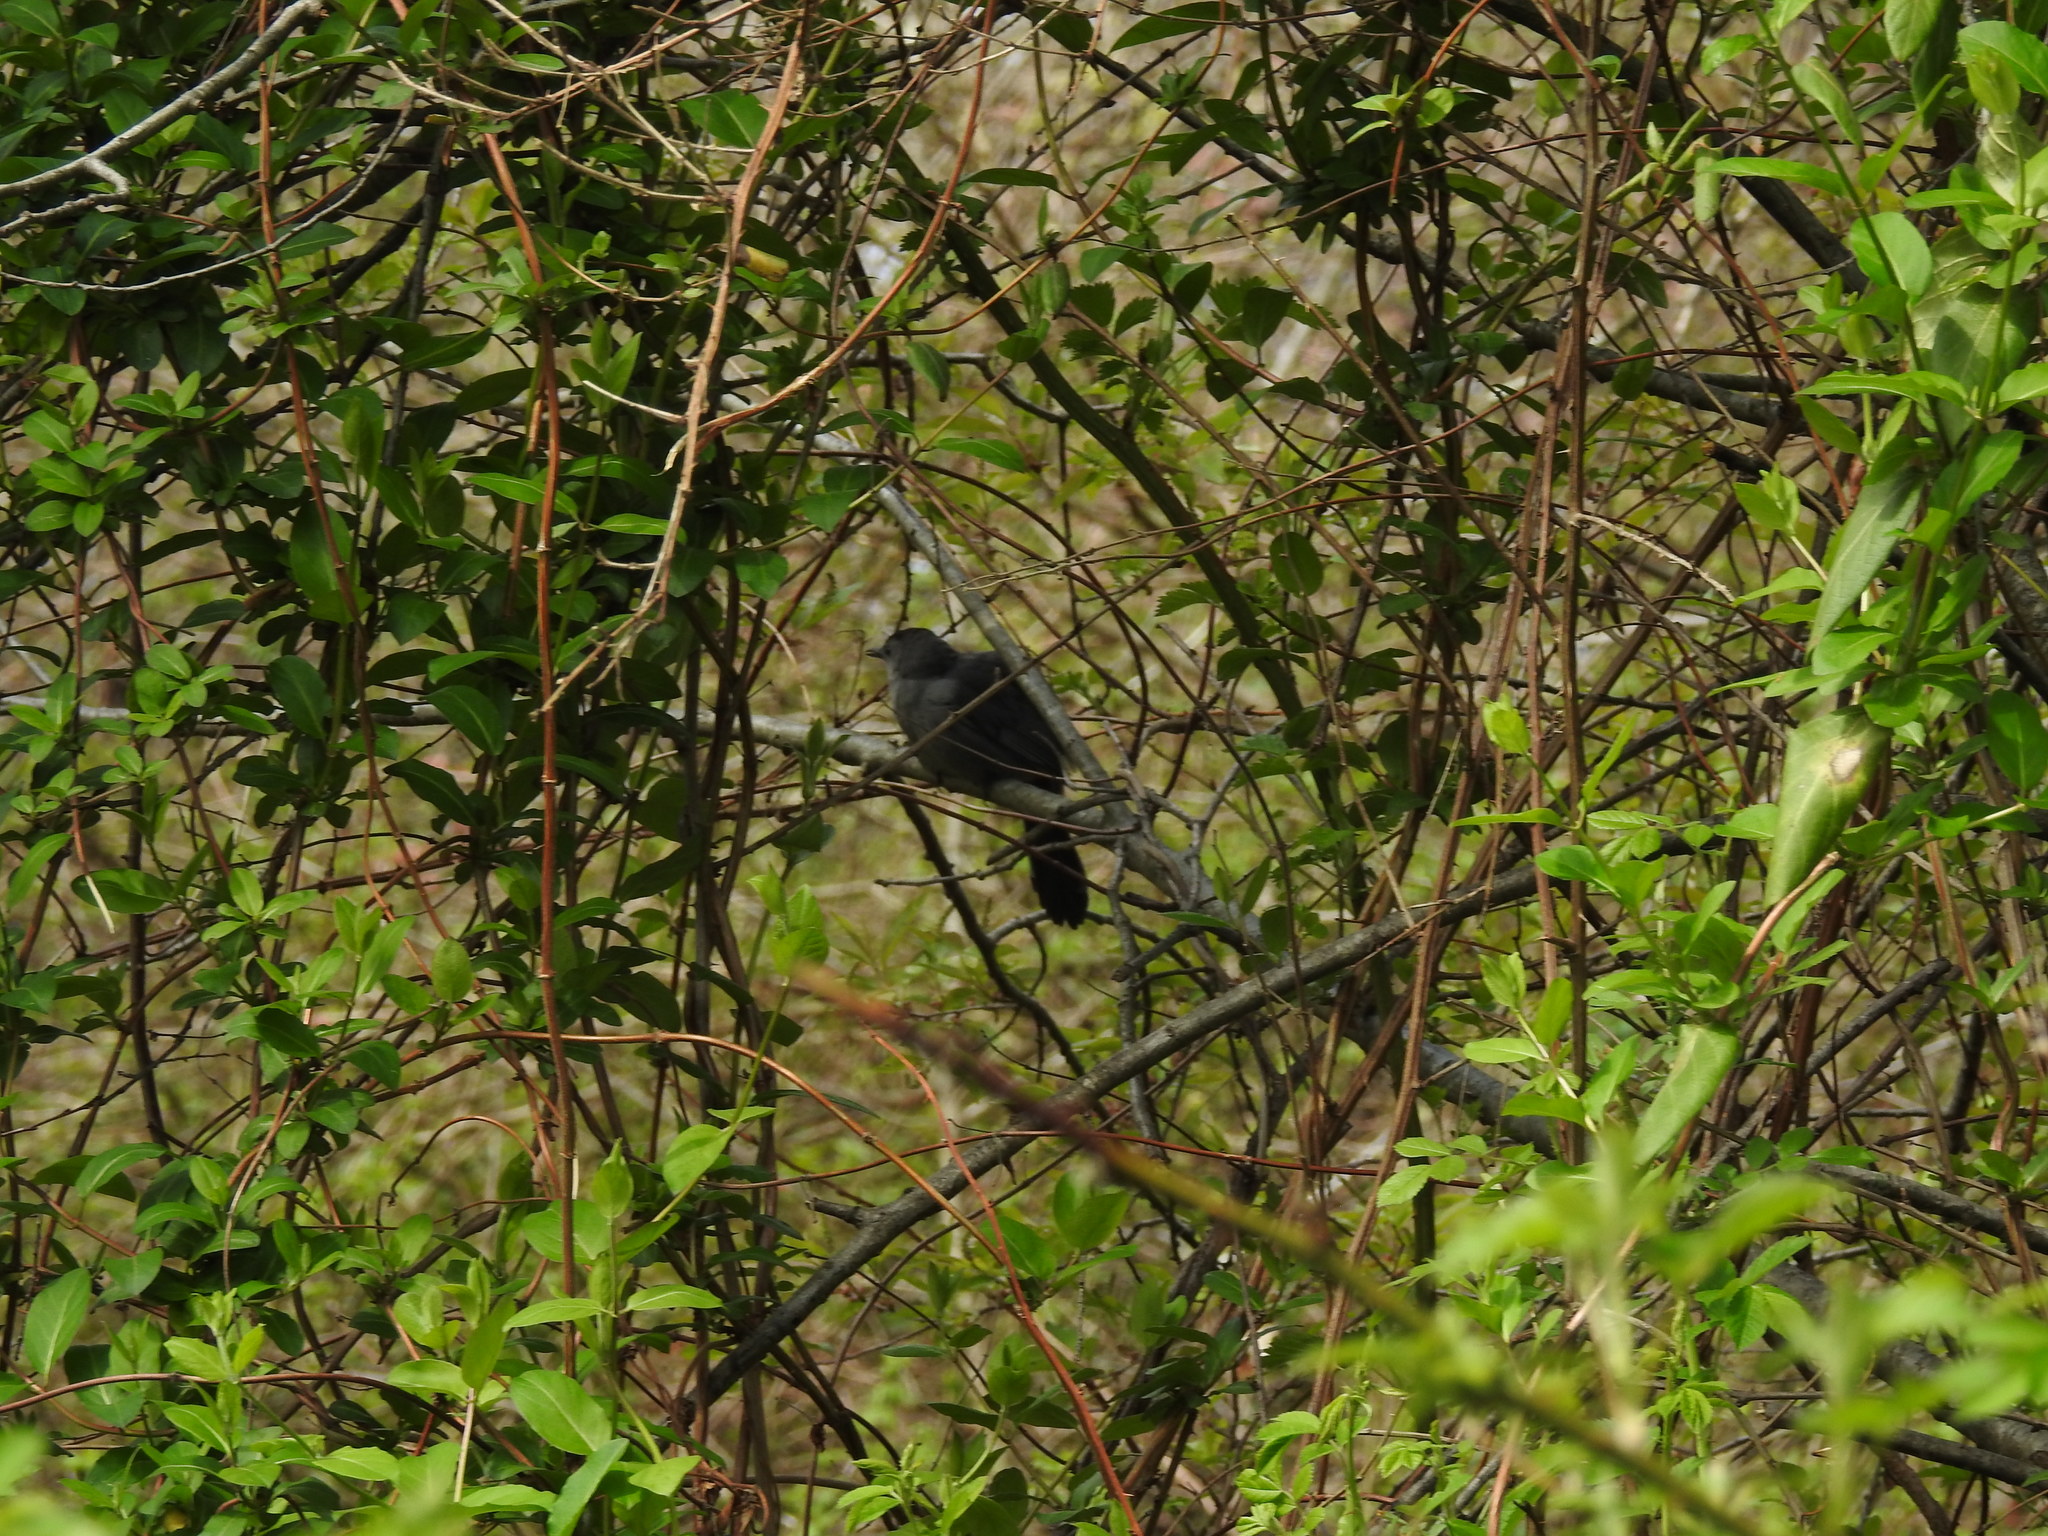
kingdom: Animalia
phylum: Chordata
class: Aves
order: Passeriformes
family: Mimidae
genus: Dumetella
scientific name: Dumetella carolinensis
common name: Gray catbird
